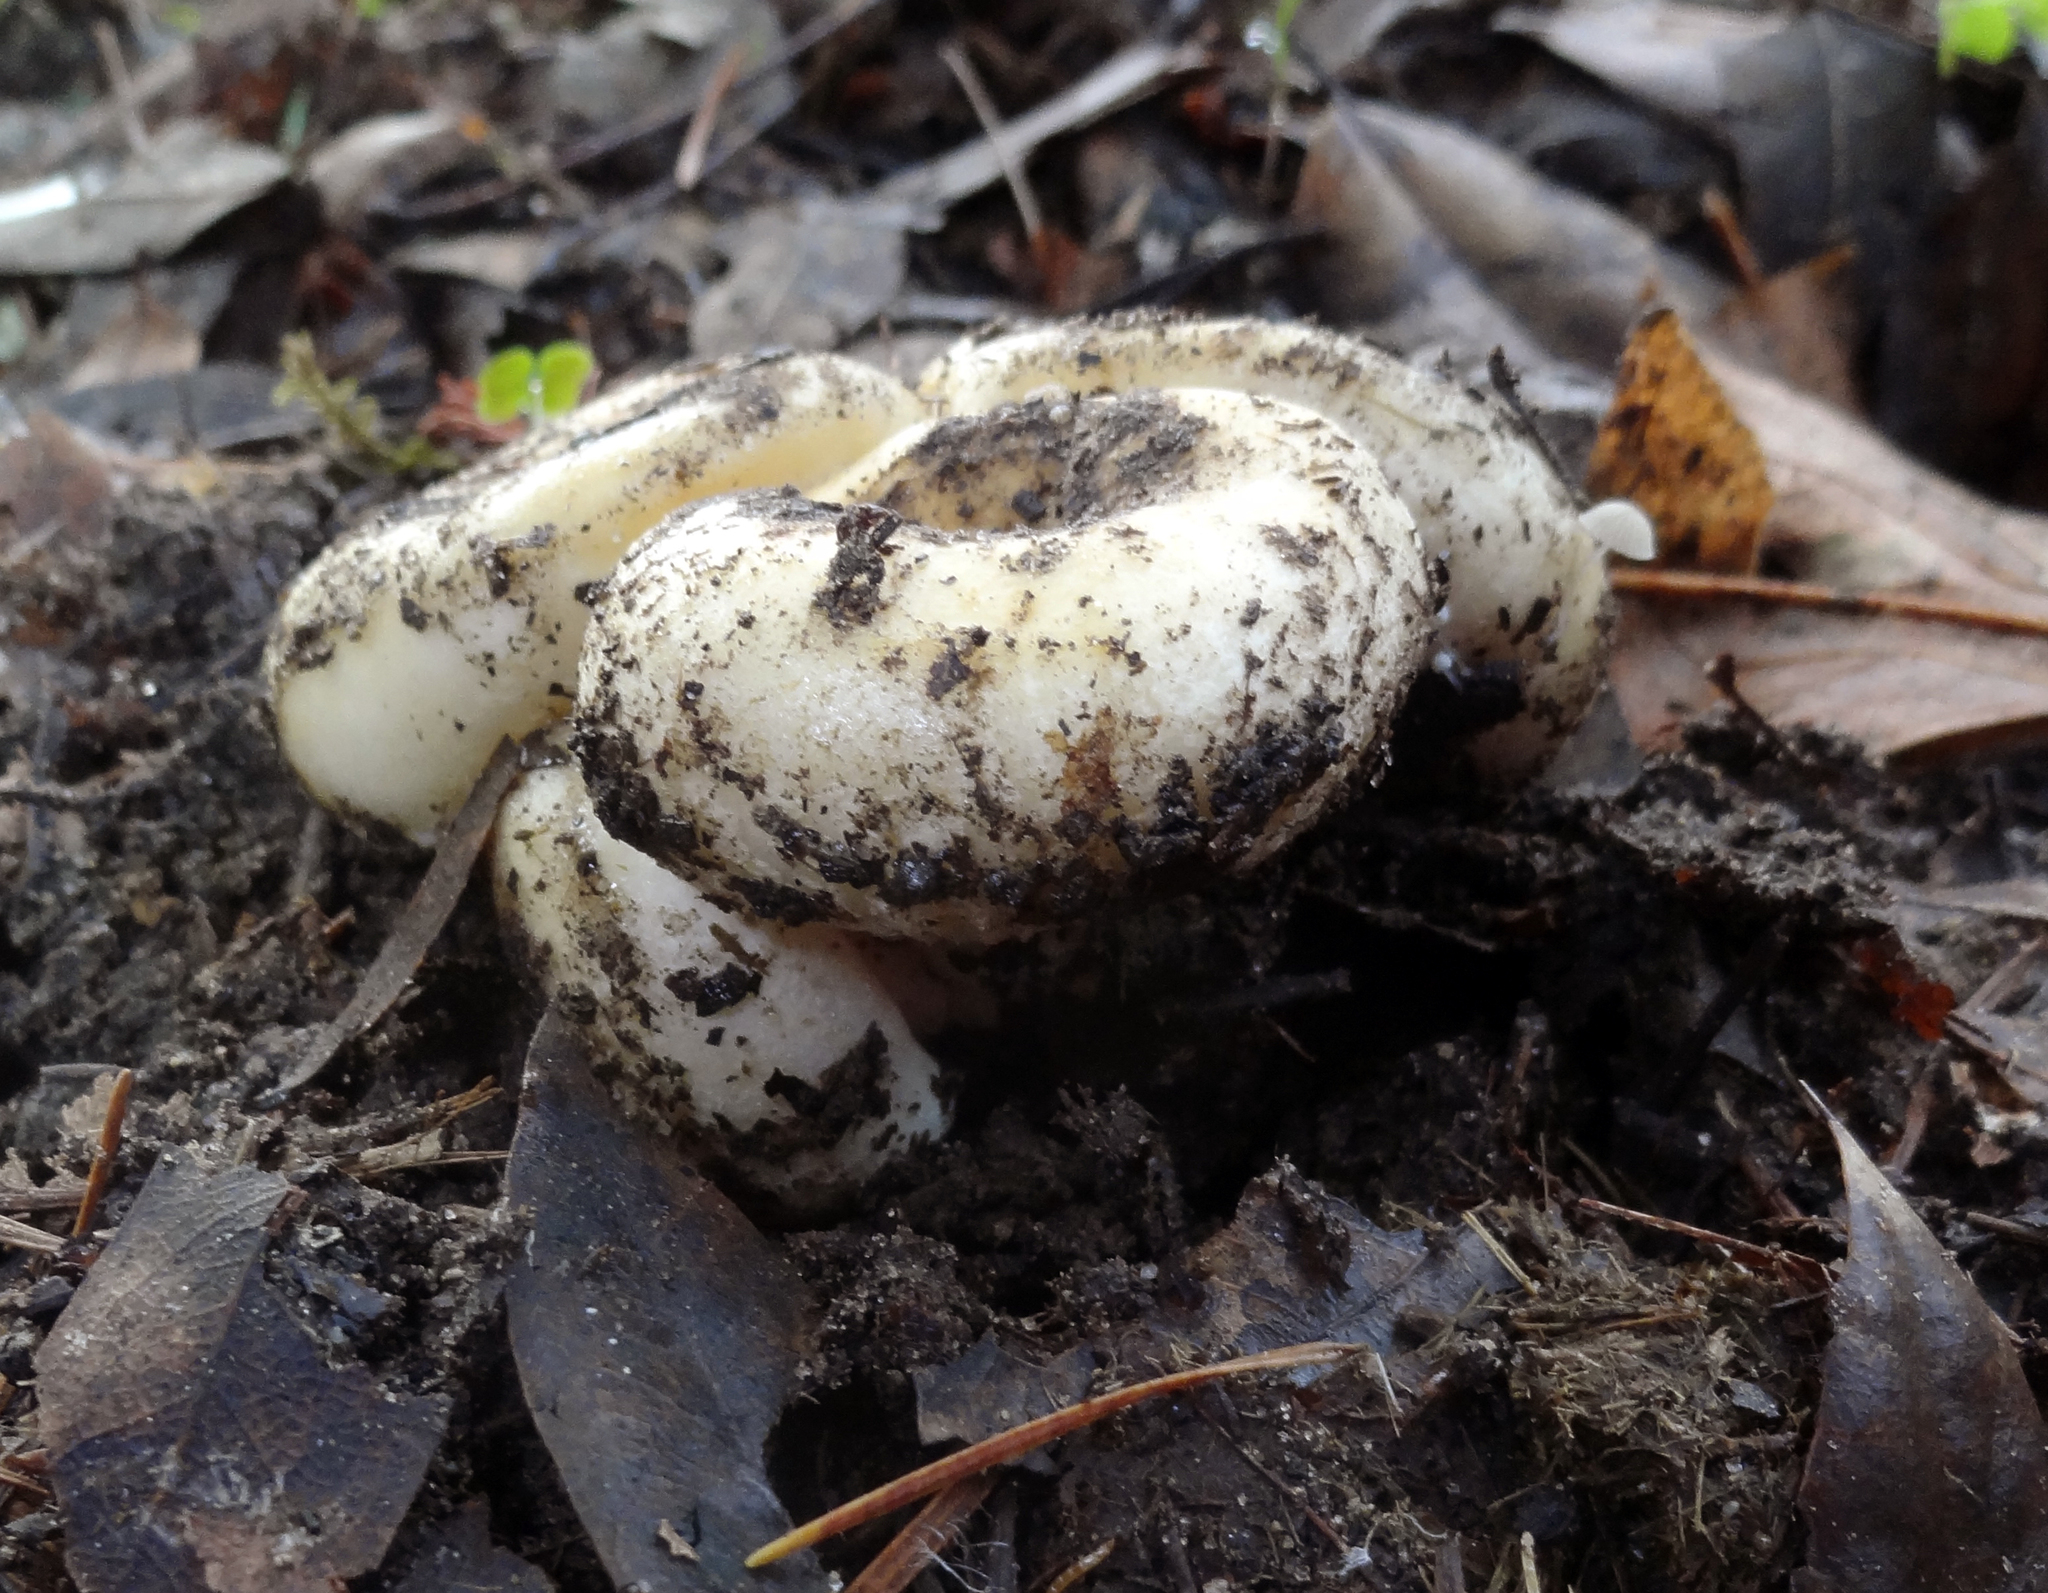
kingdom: Fungi
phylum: Basidiomycota
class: Agaricomycetes
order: Russulales
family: Russulaceae
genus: Lactarius
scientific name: Lactarius alnicola
